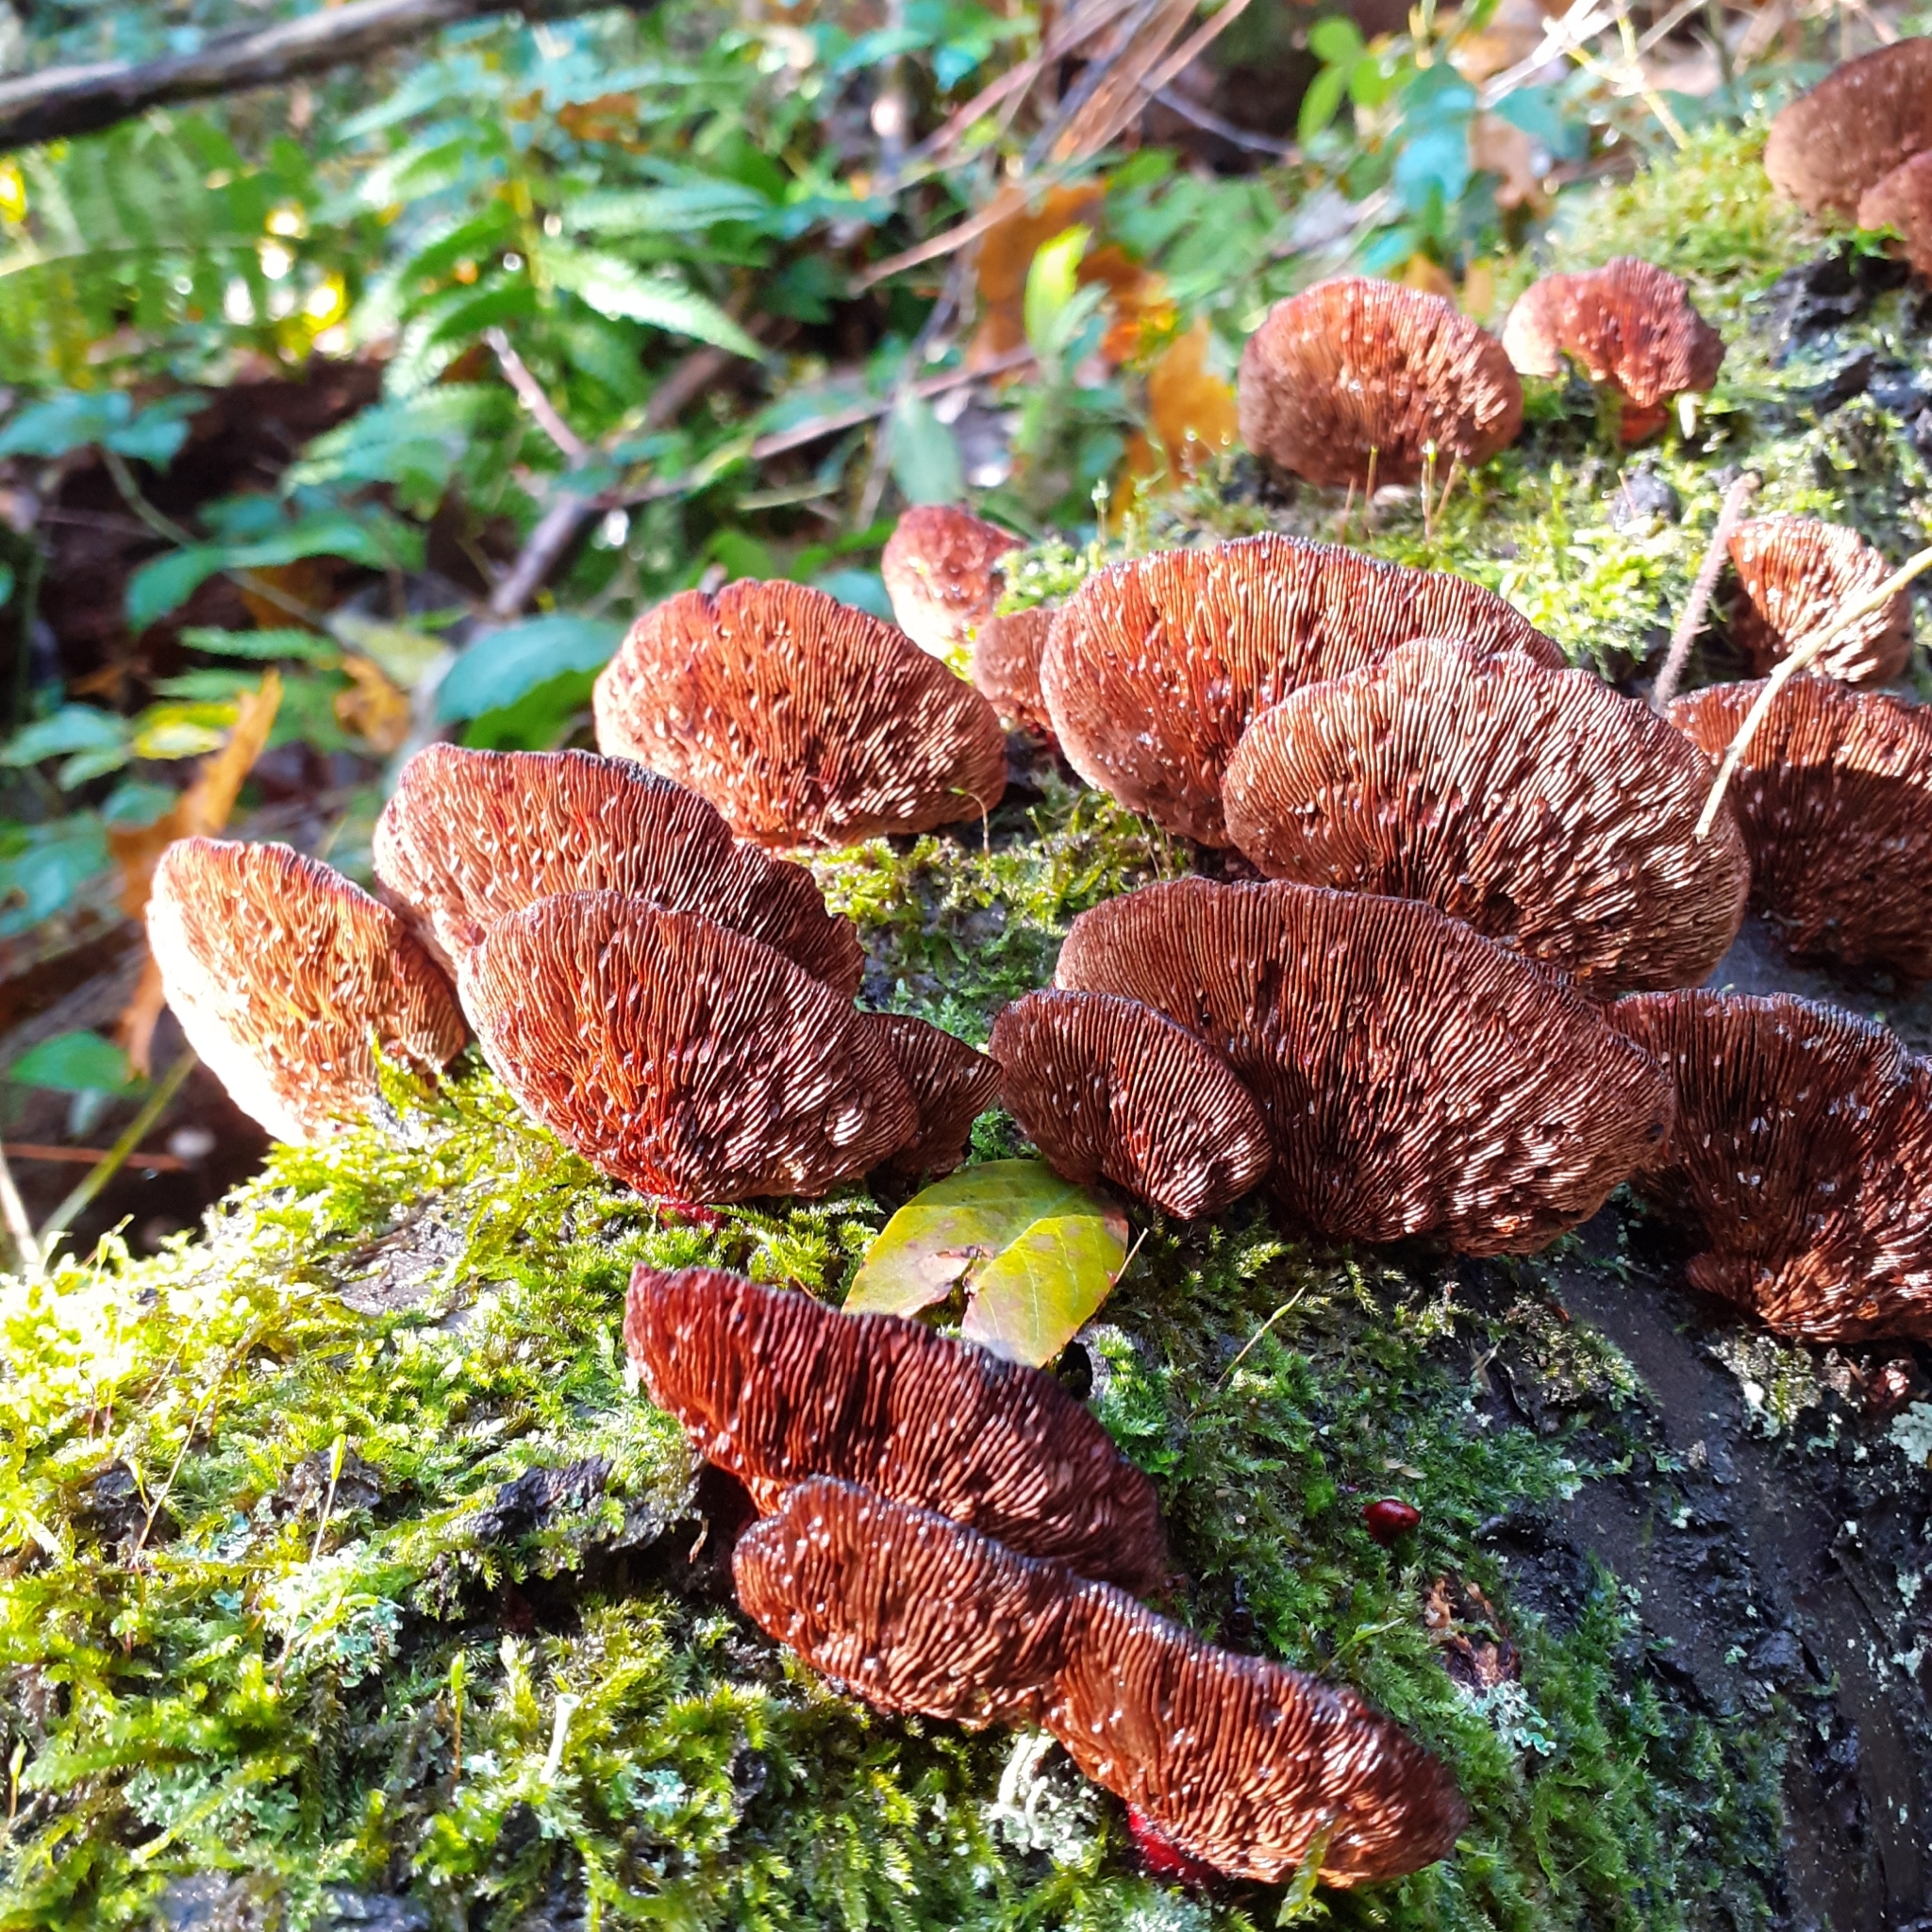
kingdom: Fungi
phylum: Basidiomycota
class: Agaricomycetes
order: Polyporales
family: Polyporaceae
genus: Daedaleopsis
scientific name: Daedaleopsis tricolor
